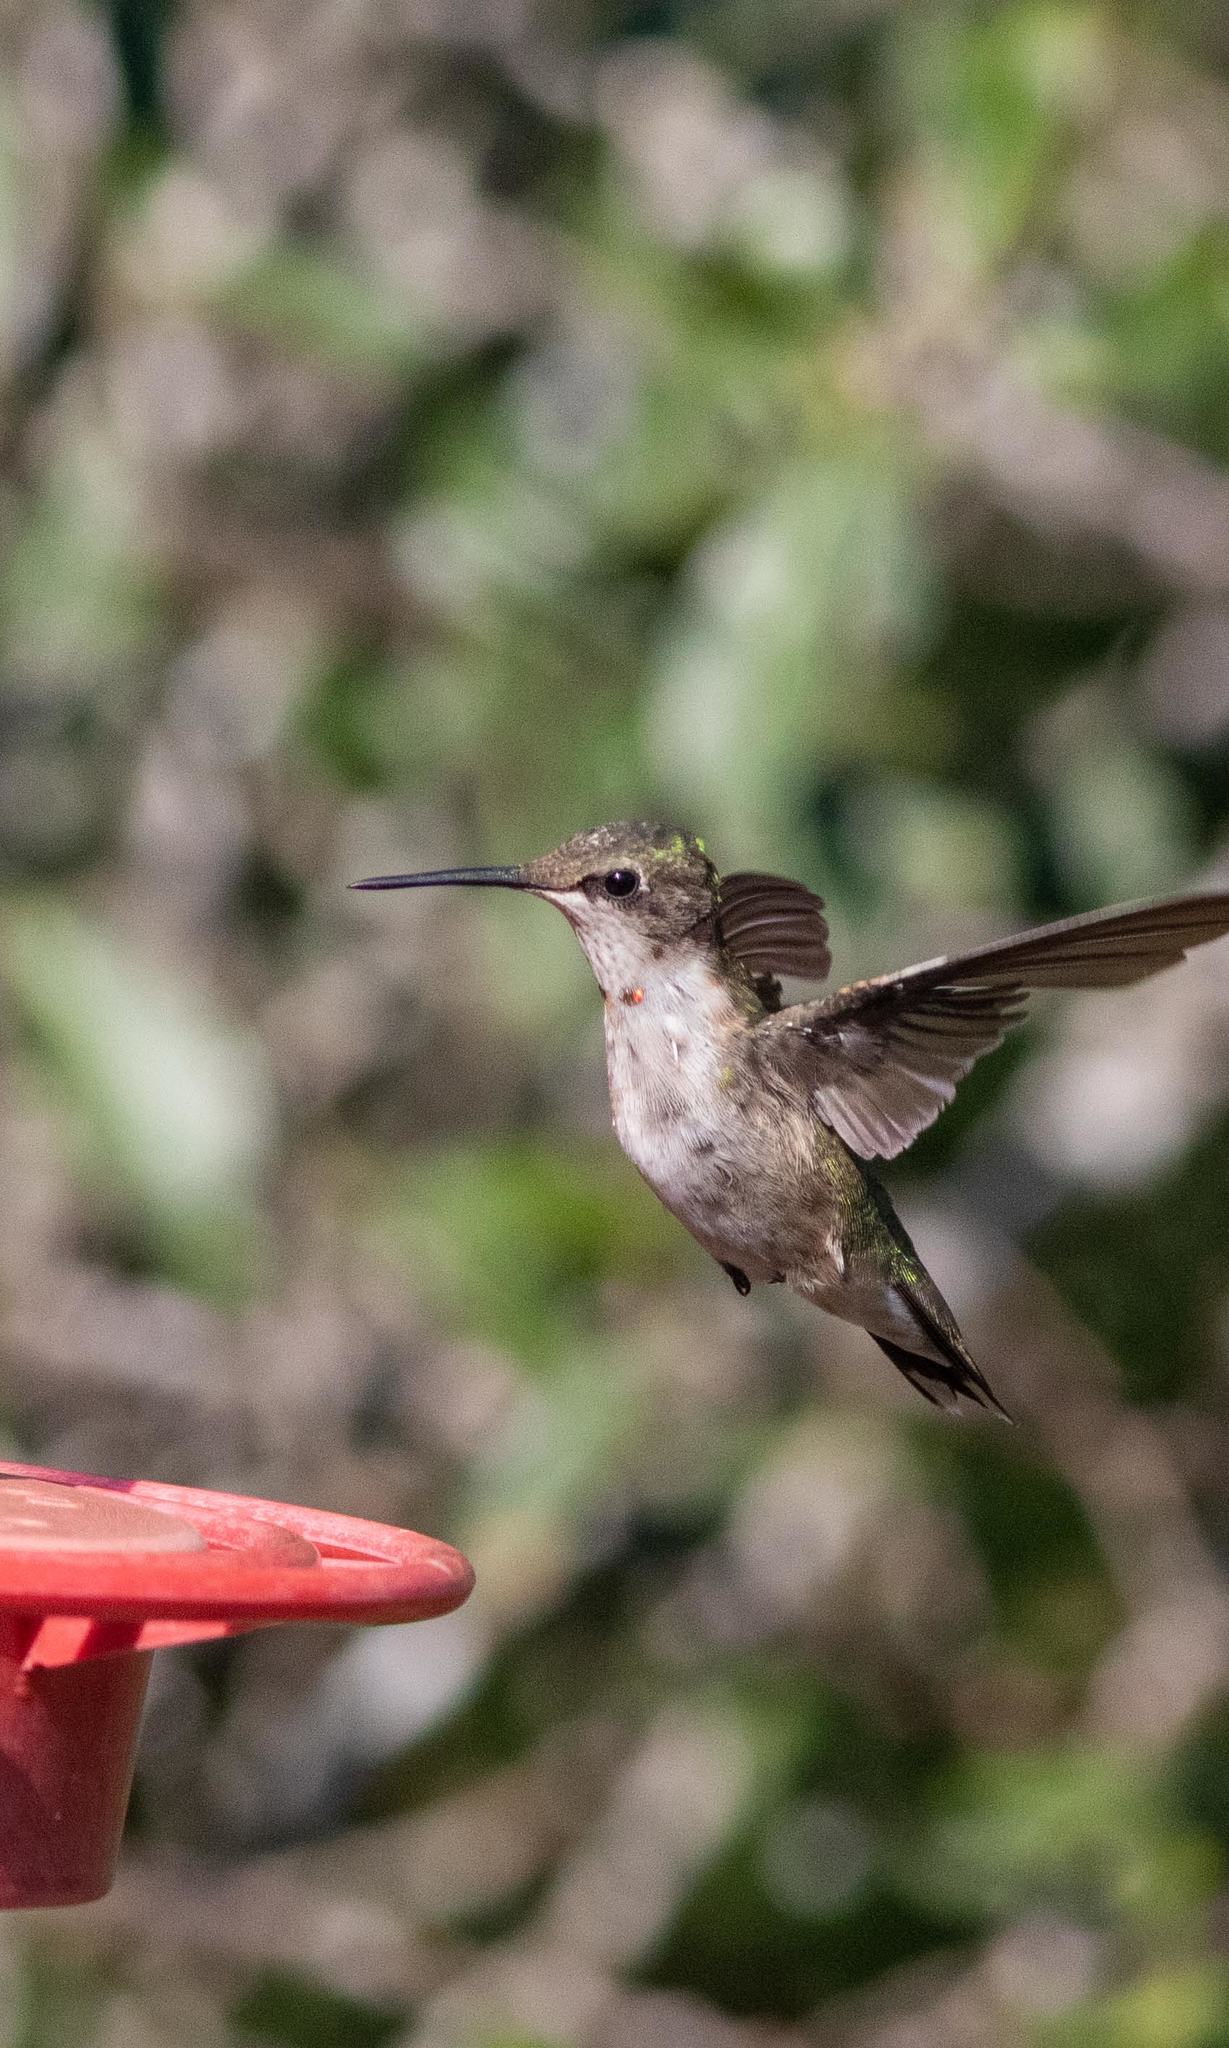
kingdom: Animalia
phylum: Chordata
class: Aves
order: Apodiformes
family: Trochilidae
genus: Archilochus
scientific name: Archilochus colubris
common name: Ruby-throated hummingbird
